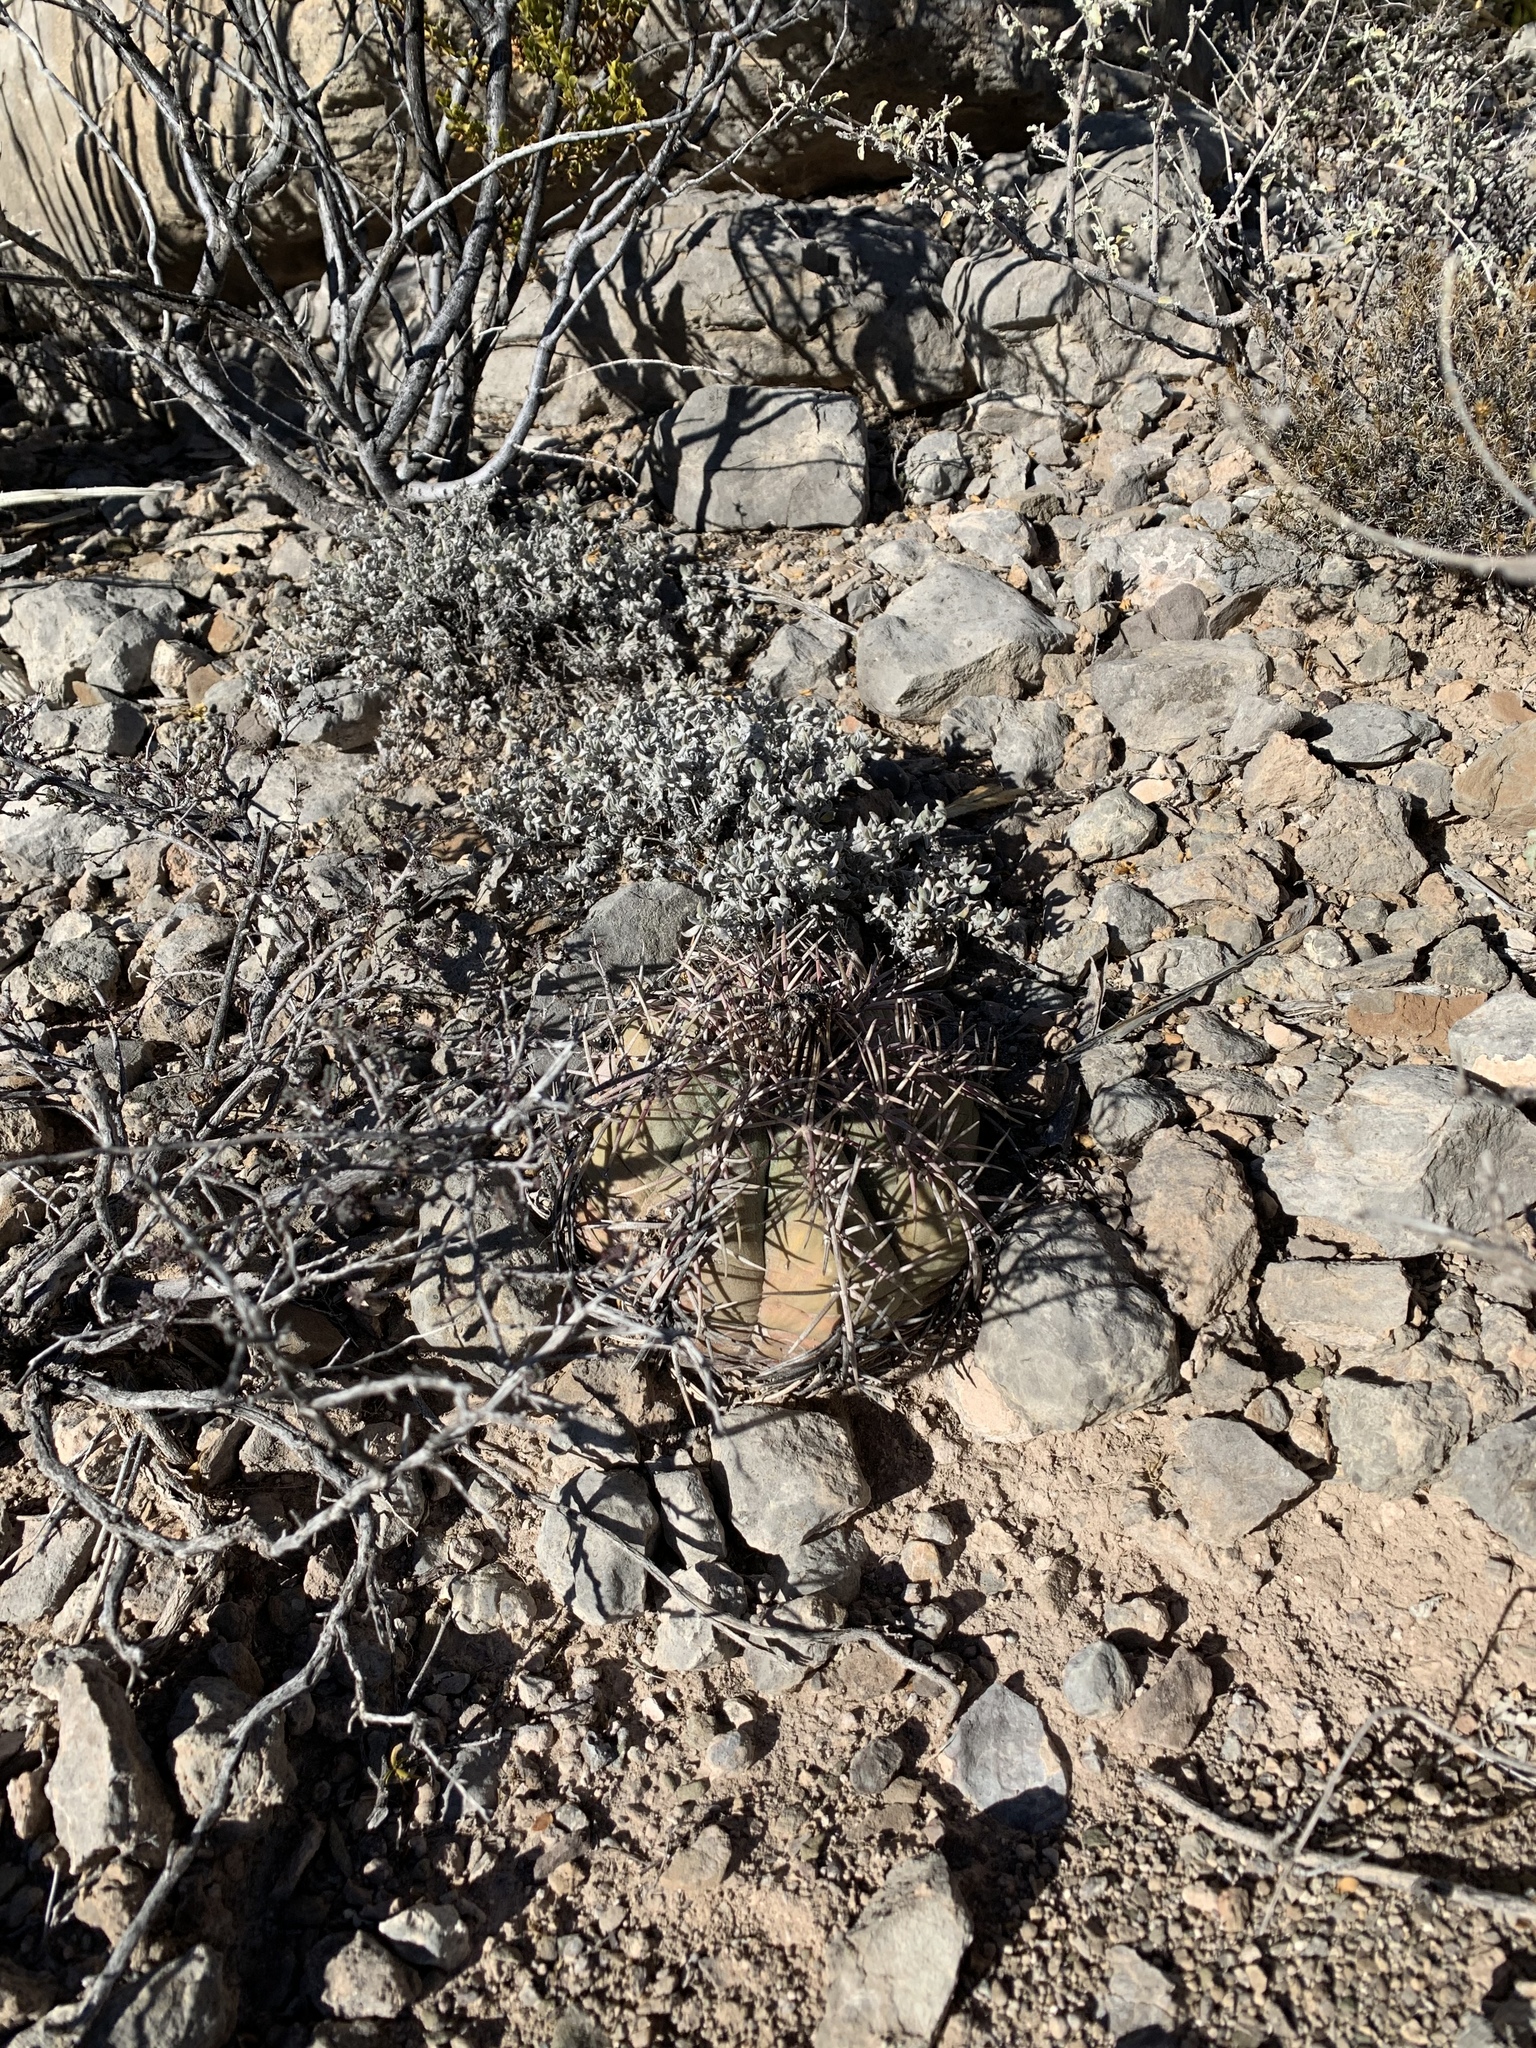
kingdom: Plantae
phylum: Tracheophyta
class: Magnoliopsida
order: Caryophyllales
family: Cactaceae
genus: Echinocactus
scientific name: Echinocactus horizonthalonius
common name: Devilshead
